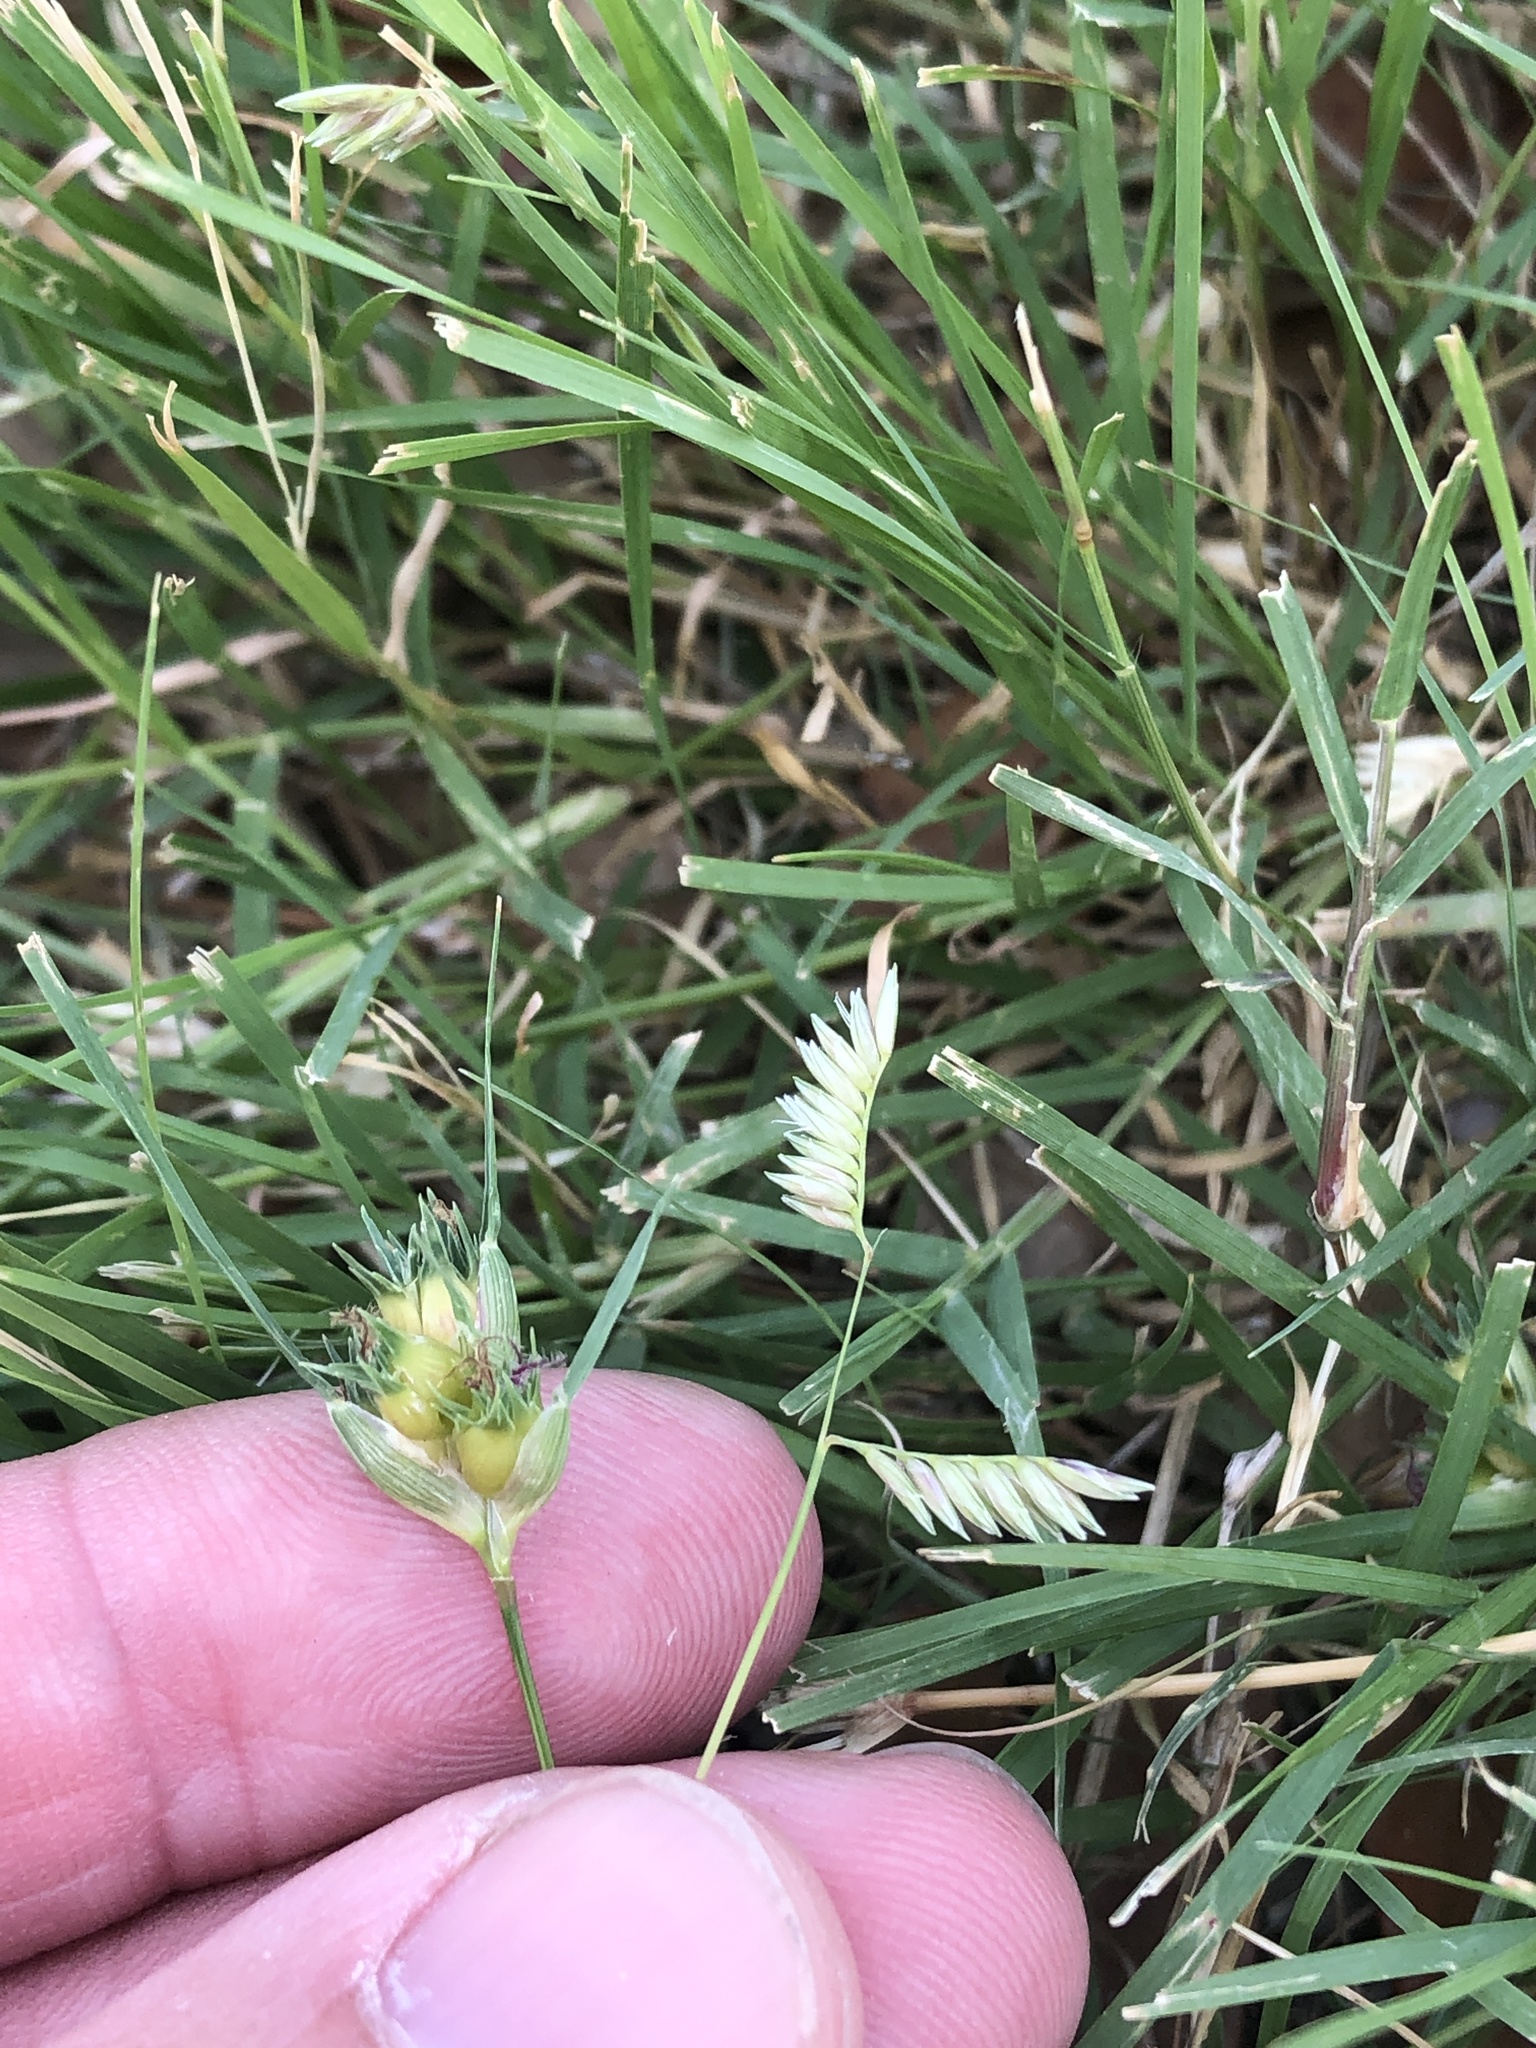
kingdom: Plantae
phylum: Tracheophyta
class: Liliopsida
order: Poales
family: Poaceae
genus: Bouteloua
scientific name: Bouteloua dactyloides
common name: Buffalo grass
